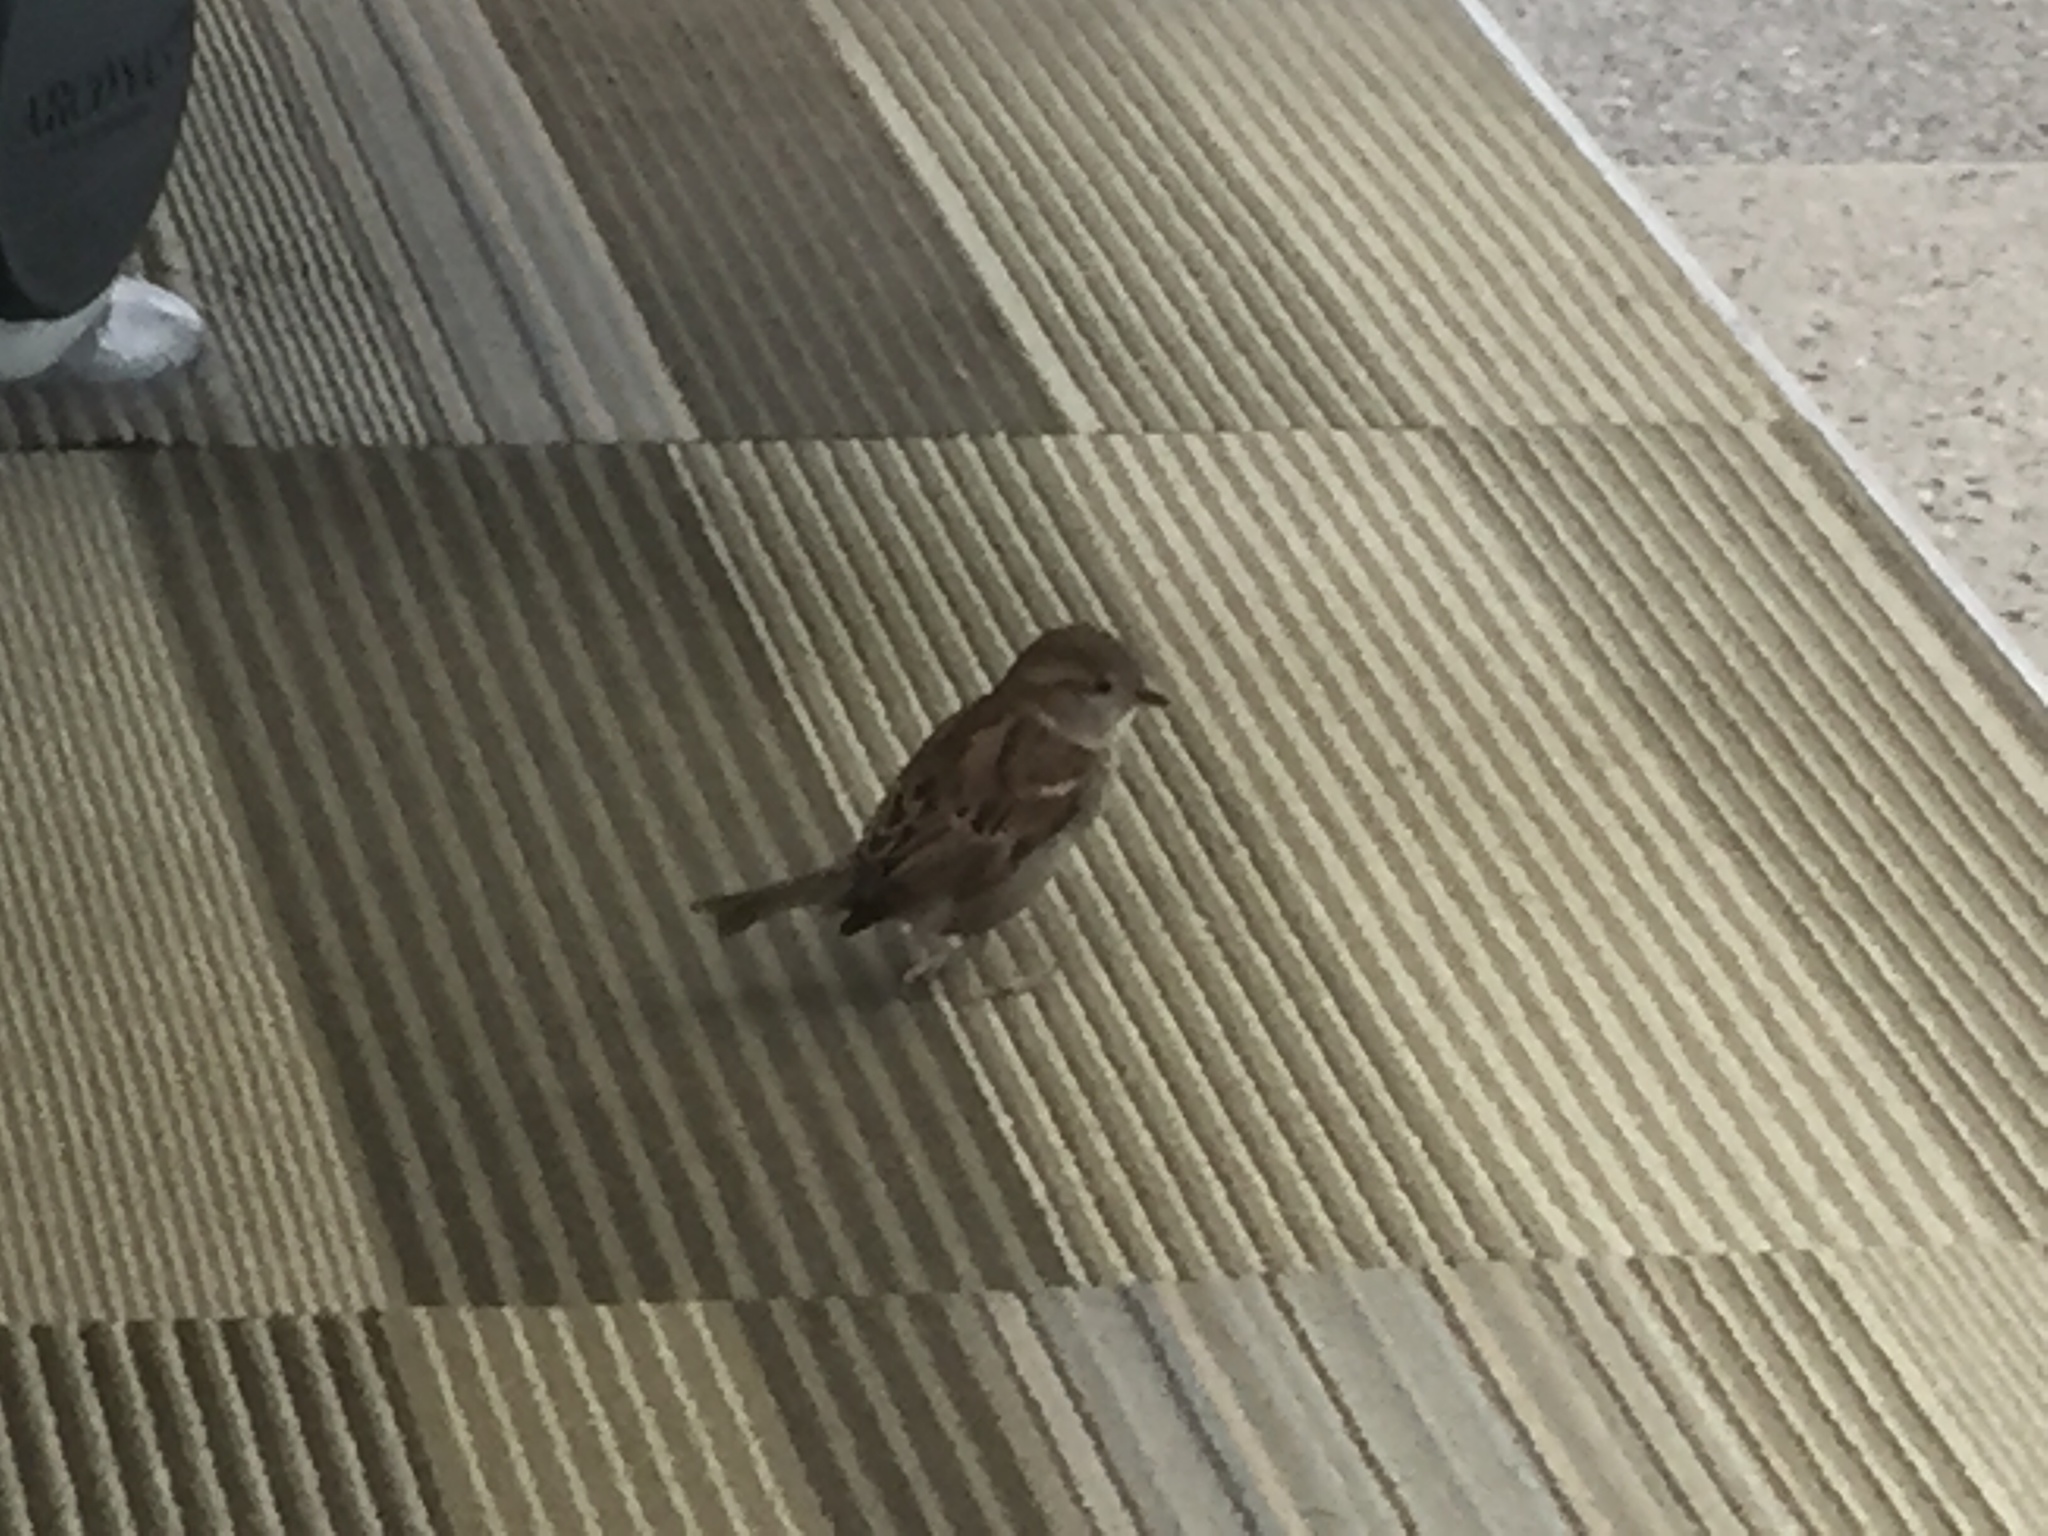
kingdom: Animalia
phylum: Chordata
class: Aves
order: Passeriformes
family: Passeridae
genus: Passer
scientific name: Passer domesticus
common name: House sparrow
